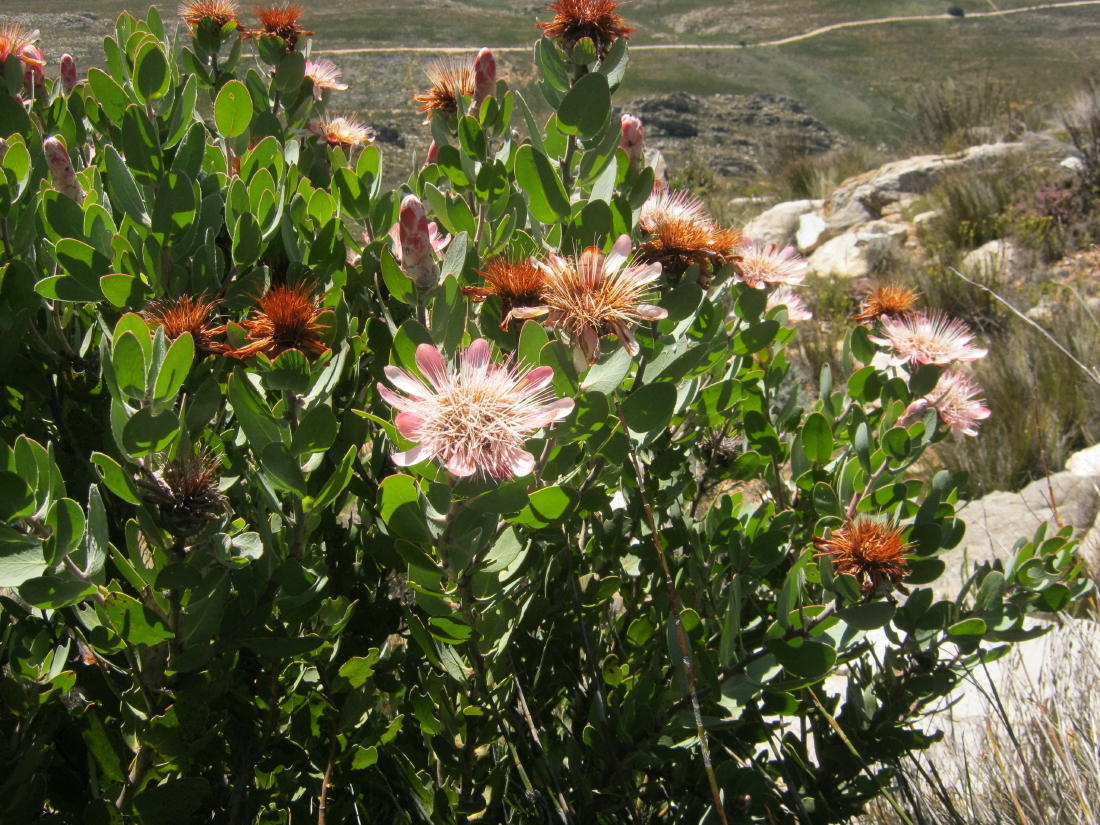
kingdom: Plantae
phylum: Tracheophyta
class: Magnoliopsida
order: Proteales
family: Proteaceae
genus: Protea
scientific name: Protea punctata
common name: Water sugarbush
